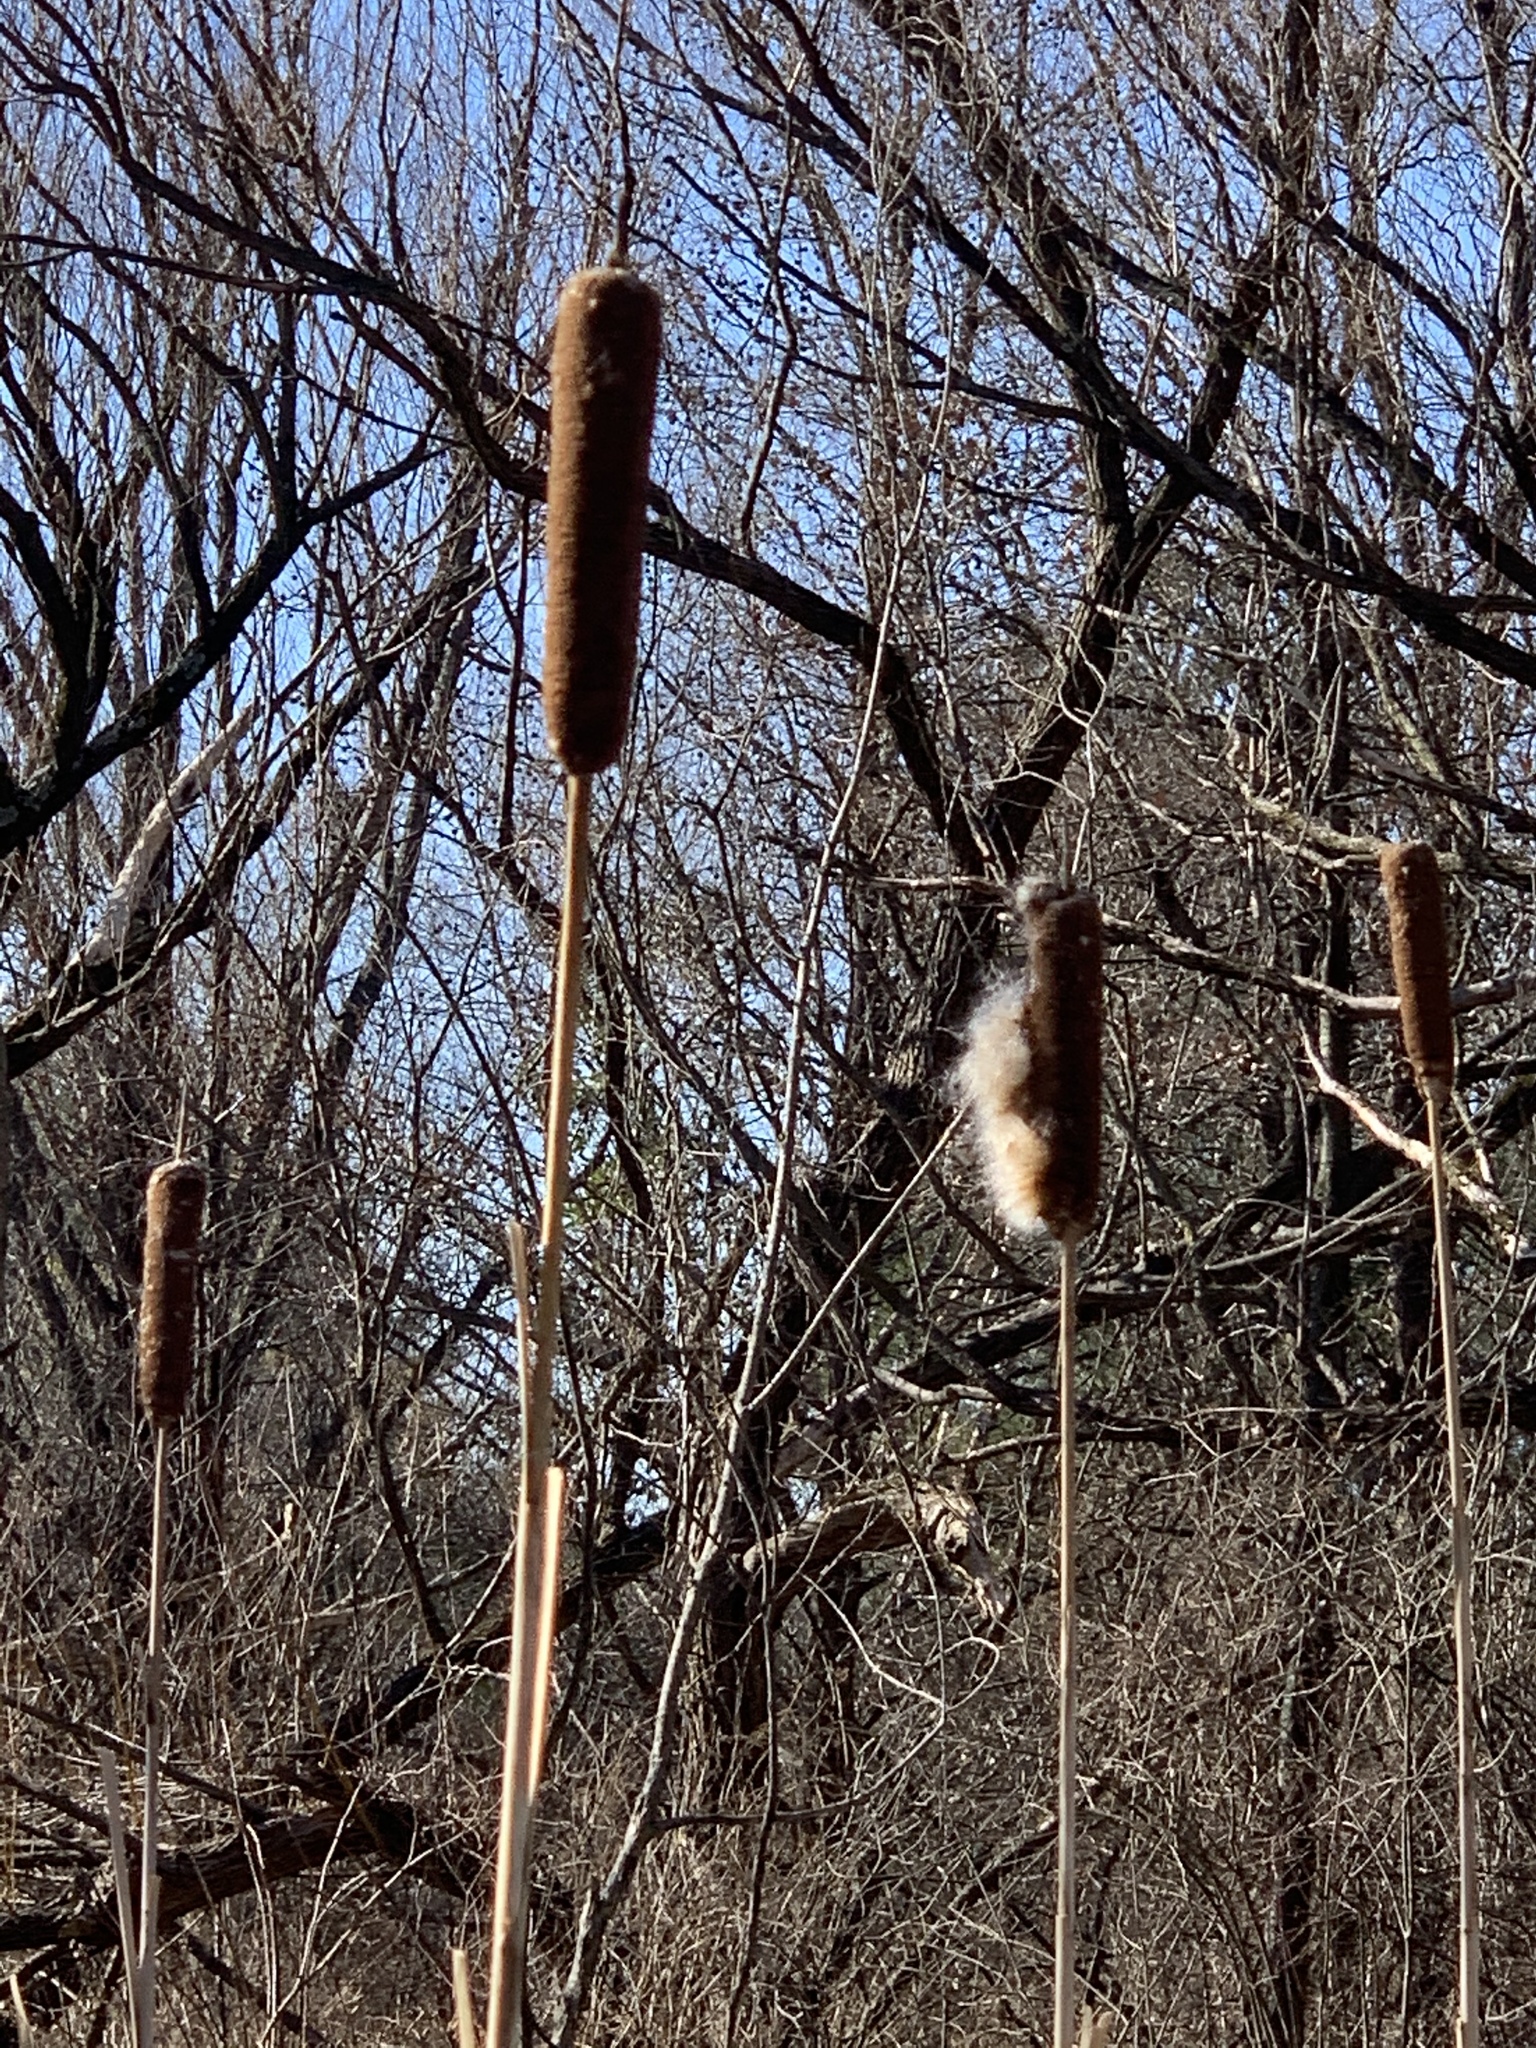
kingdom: Plantae
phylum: Tracheophyta
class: Liliopsida
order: Poales
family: Typhaceae
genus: Typha
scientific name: Typha latifolia
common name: Broadleaf cattail
